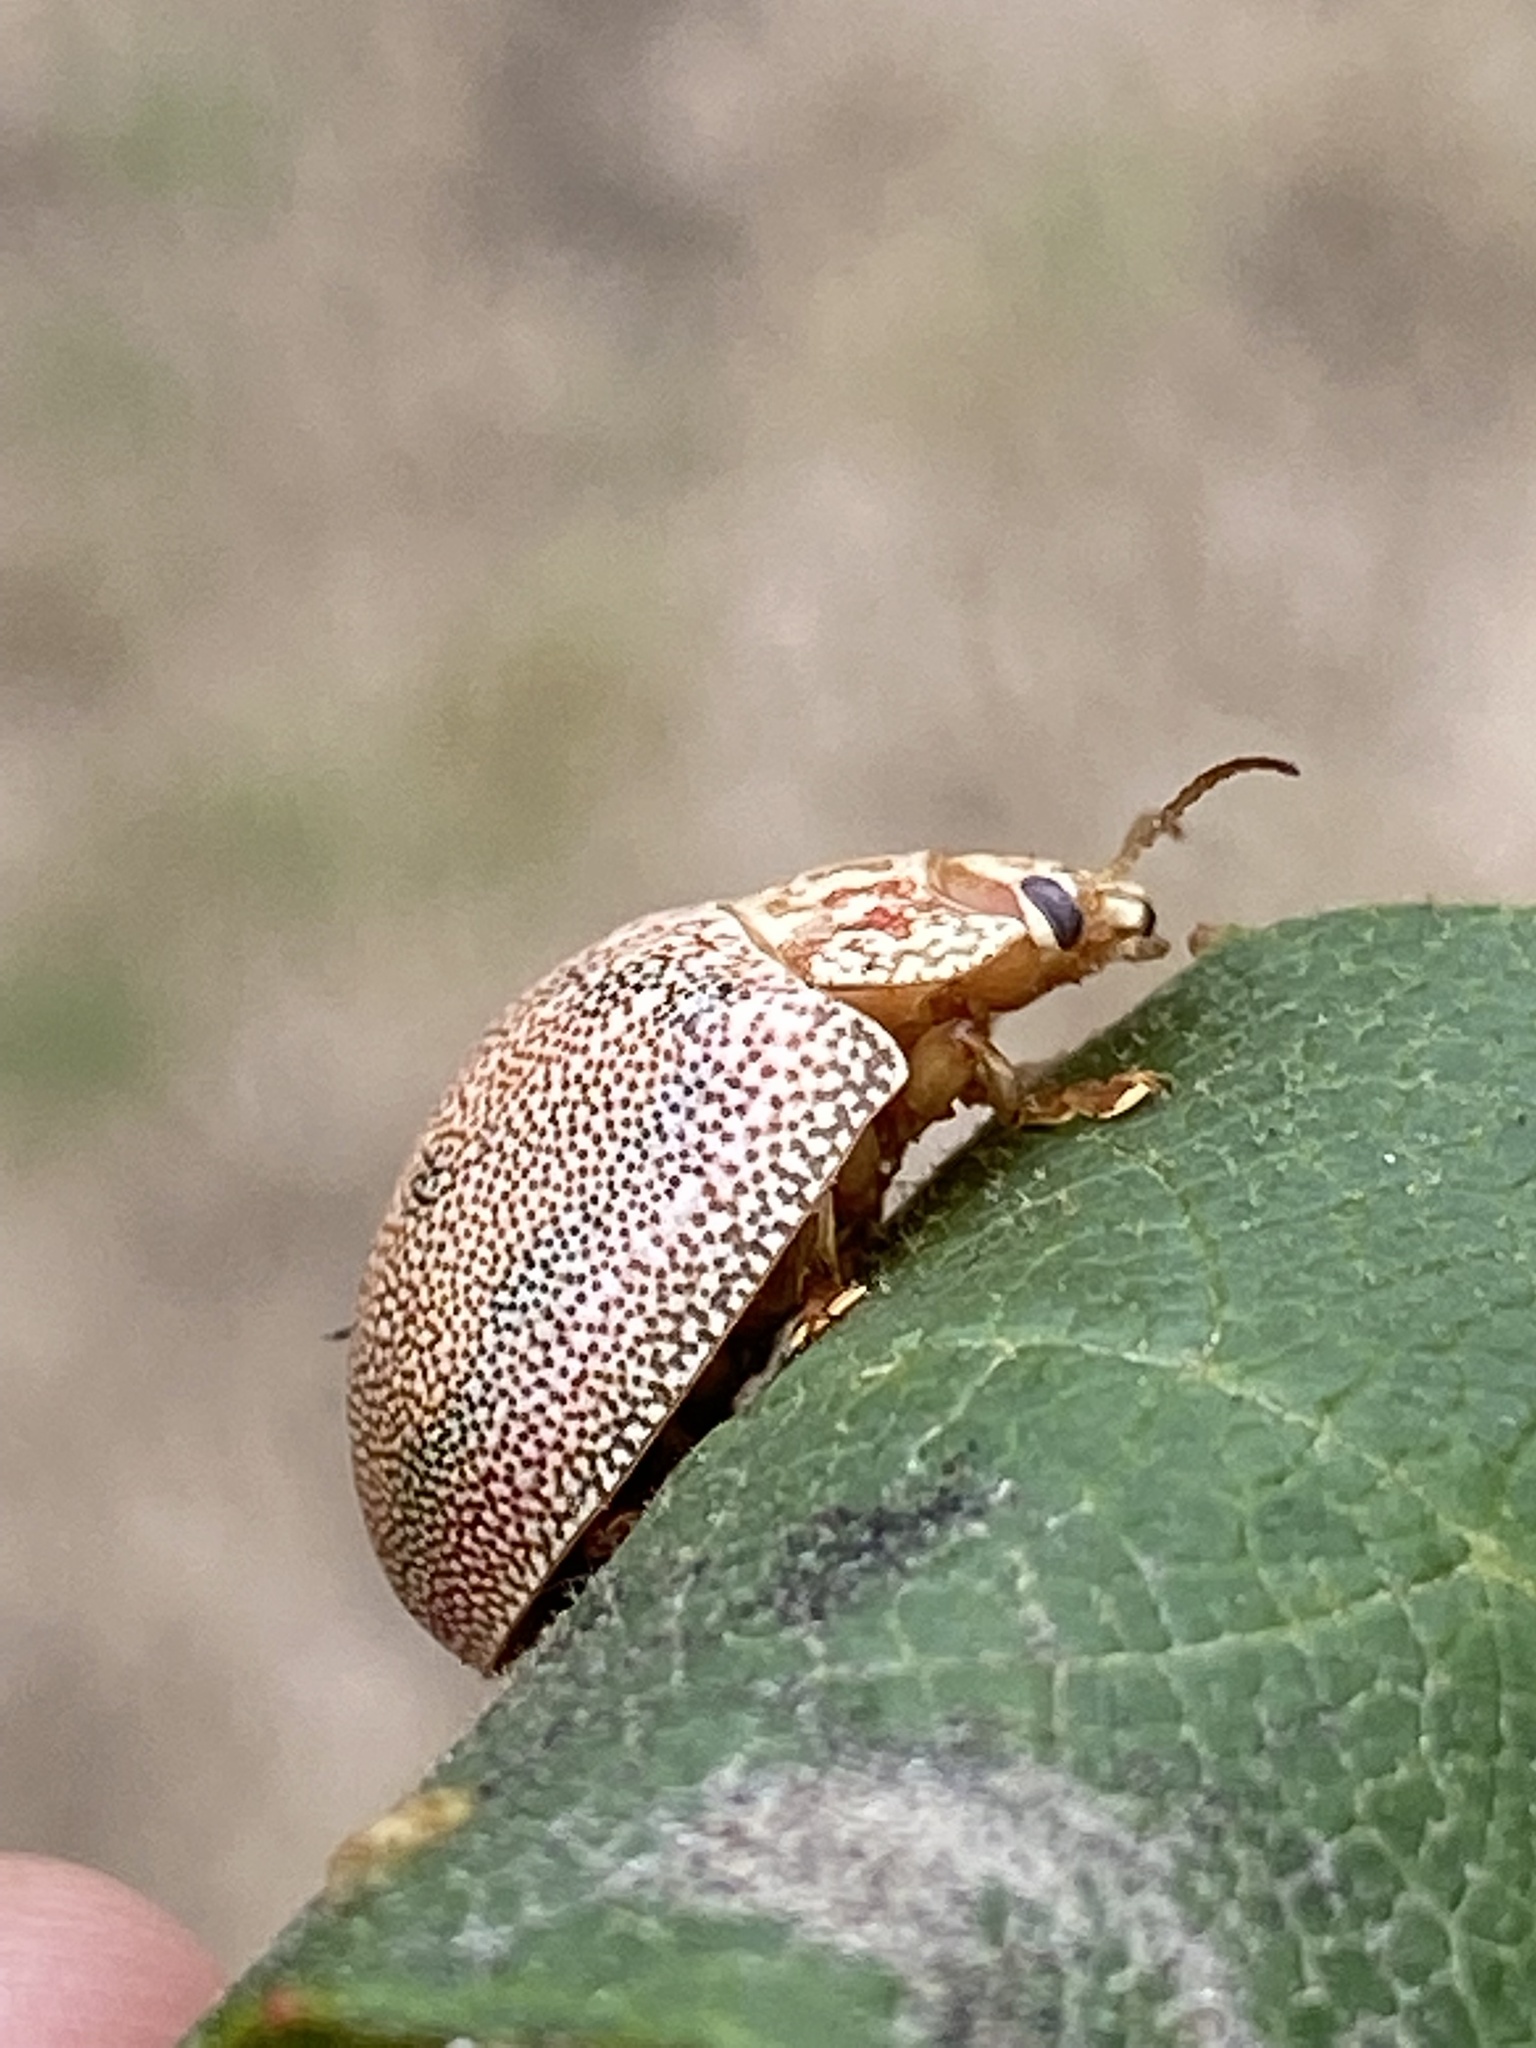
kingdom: Animalia
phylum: Arthropoda
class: Insecta
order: Coleoptera
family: Chrysomelidae
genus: Paropsis
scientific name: Paropsis
